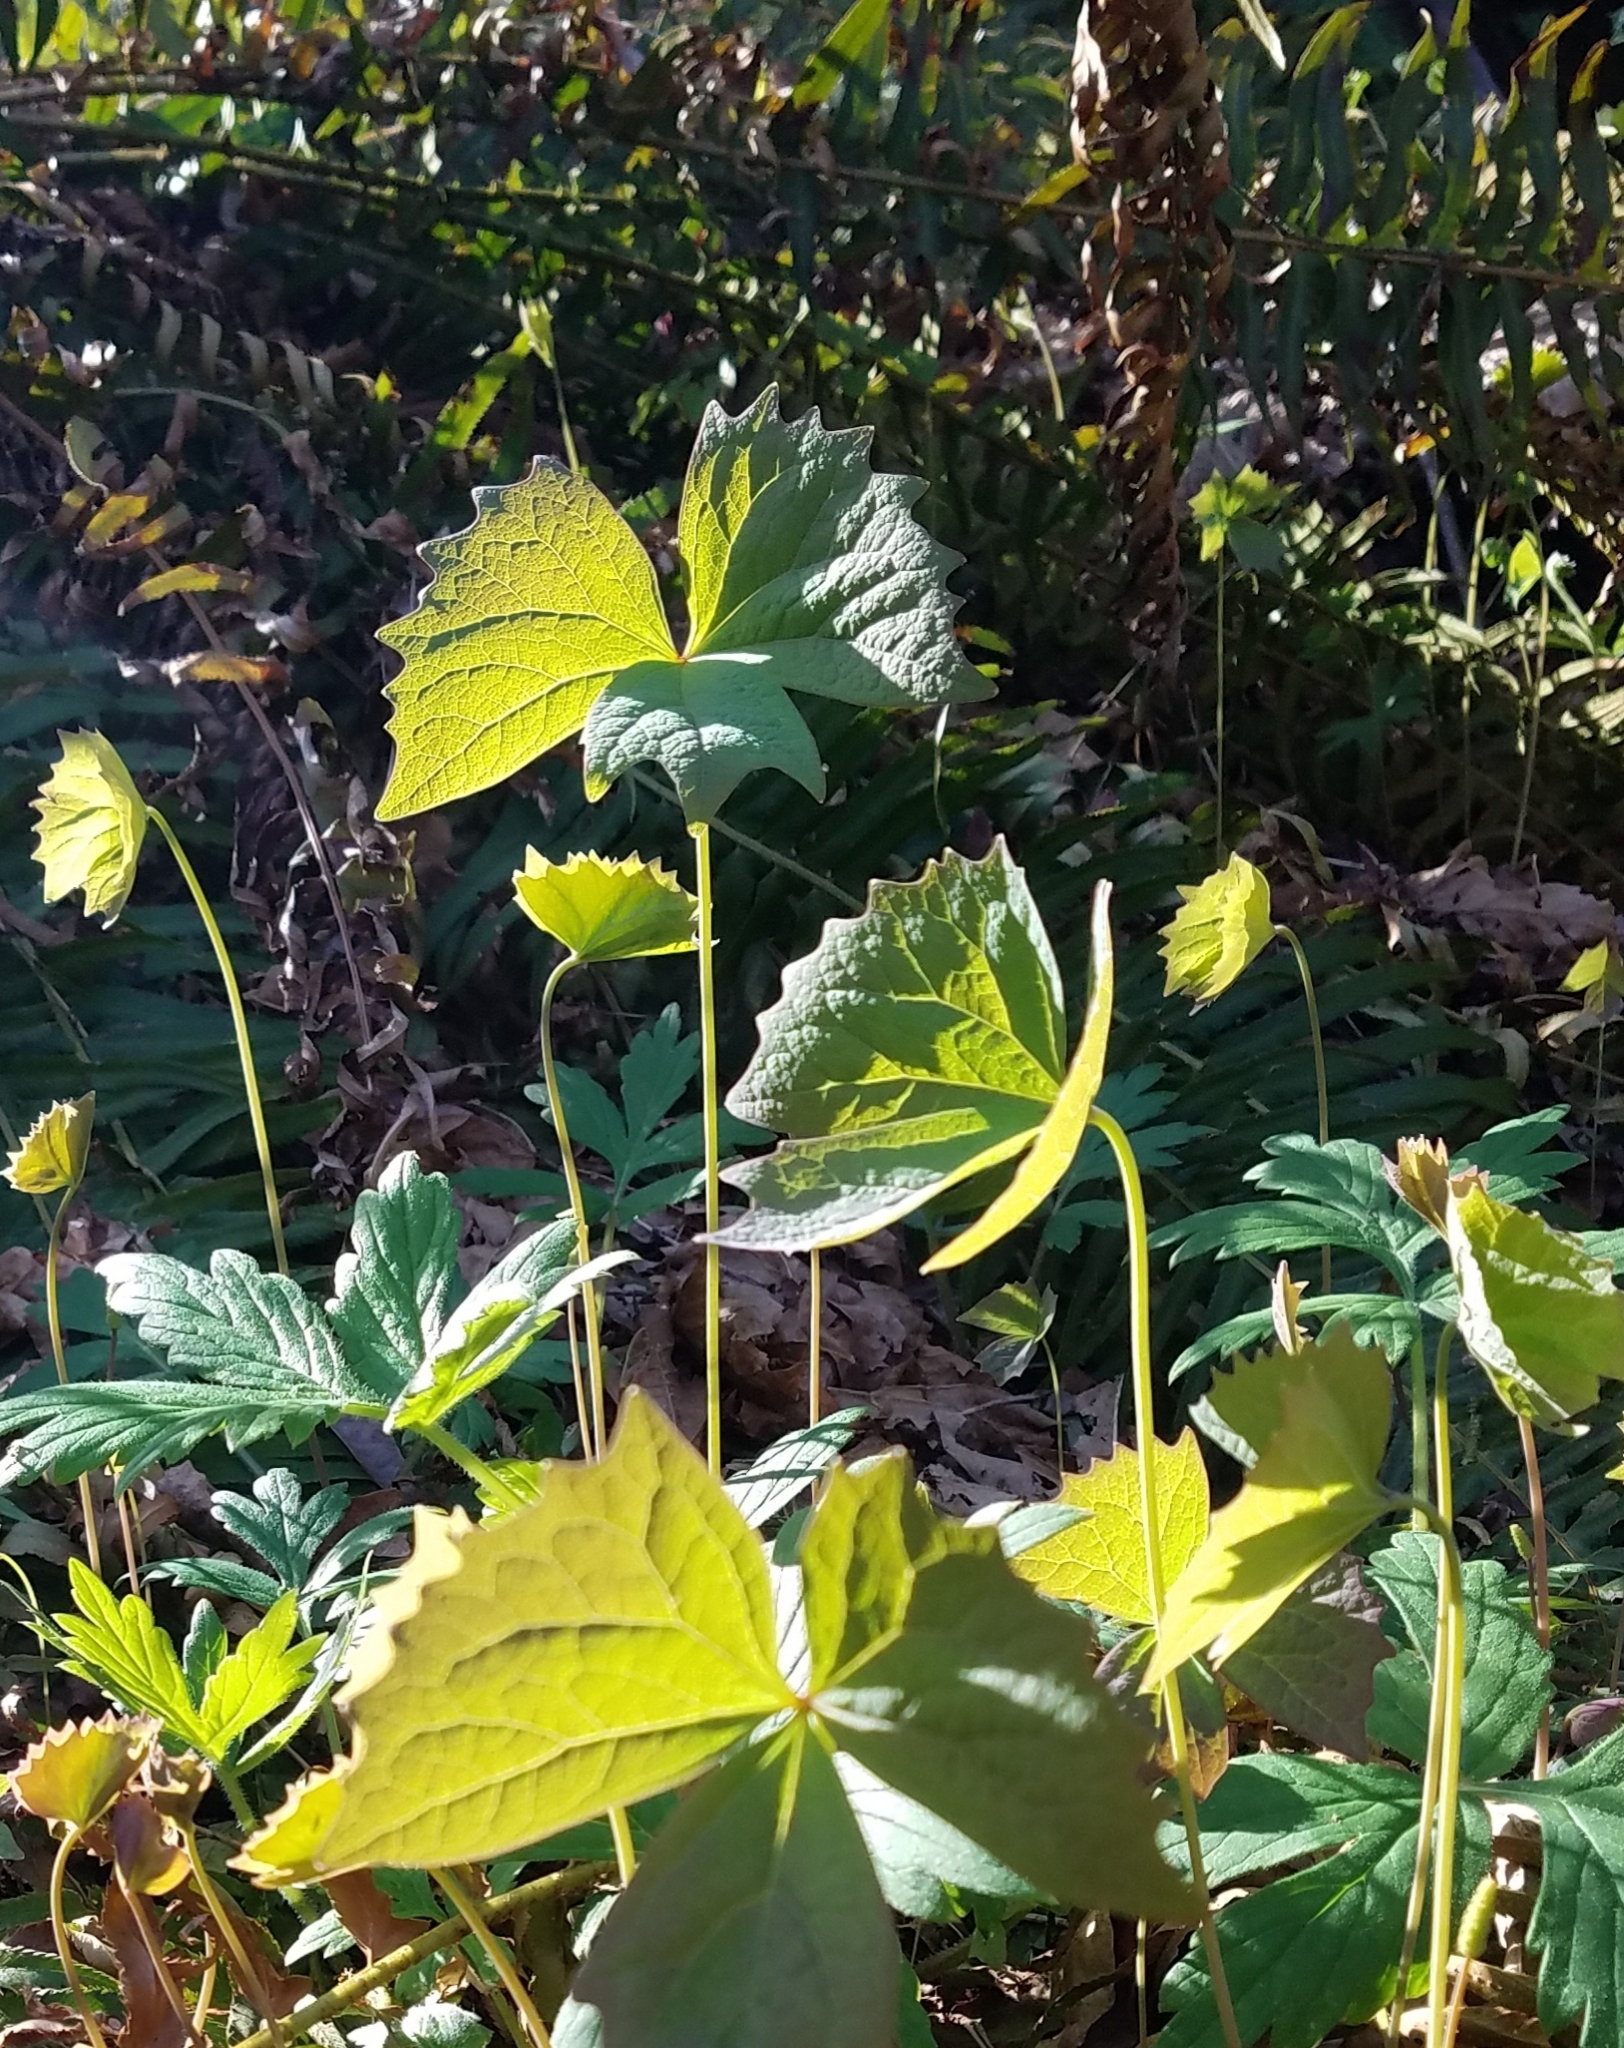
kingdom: Plantae
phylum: Tracheophyta
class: Magnoliopsida
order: Ranunculales
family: Berberidaceae
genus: Achlys
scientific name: Achlys triphylla
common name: Vanilla-leaf
